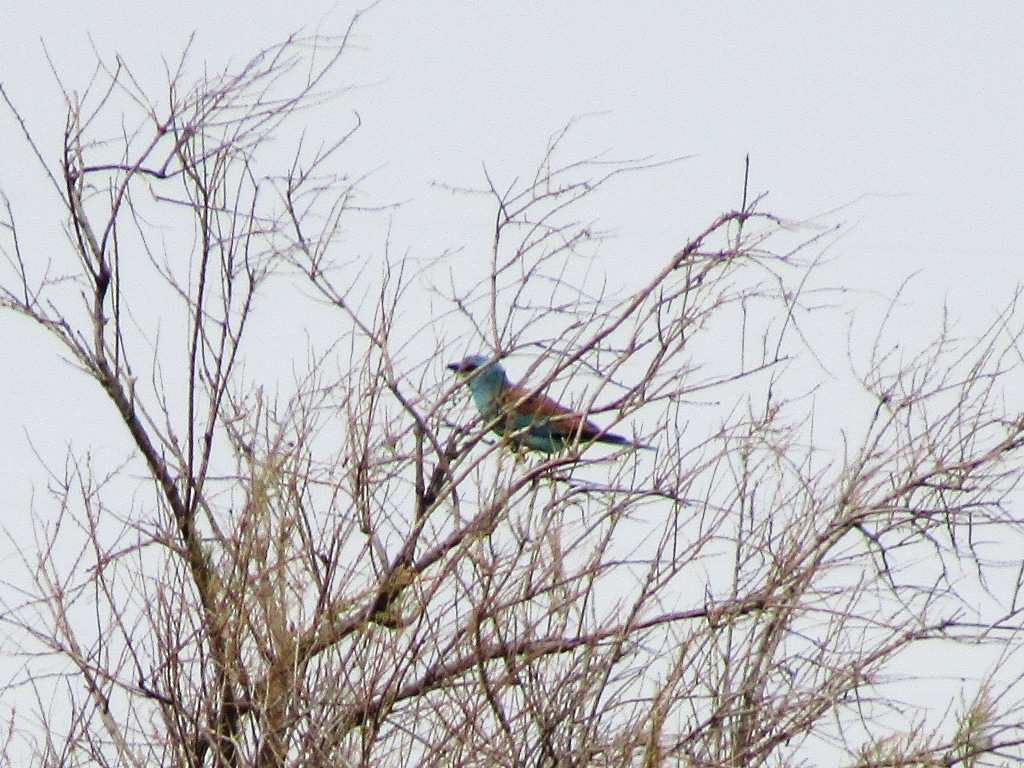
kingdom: Animalia
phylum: Chordata
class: Aves
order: Coraciiformes
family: Coraciidae
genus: Coracias
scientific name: Coracias garrulus
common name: European roller
